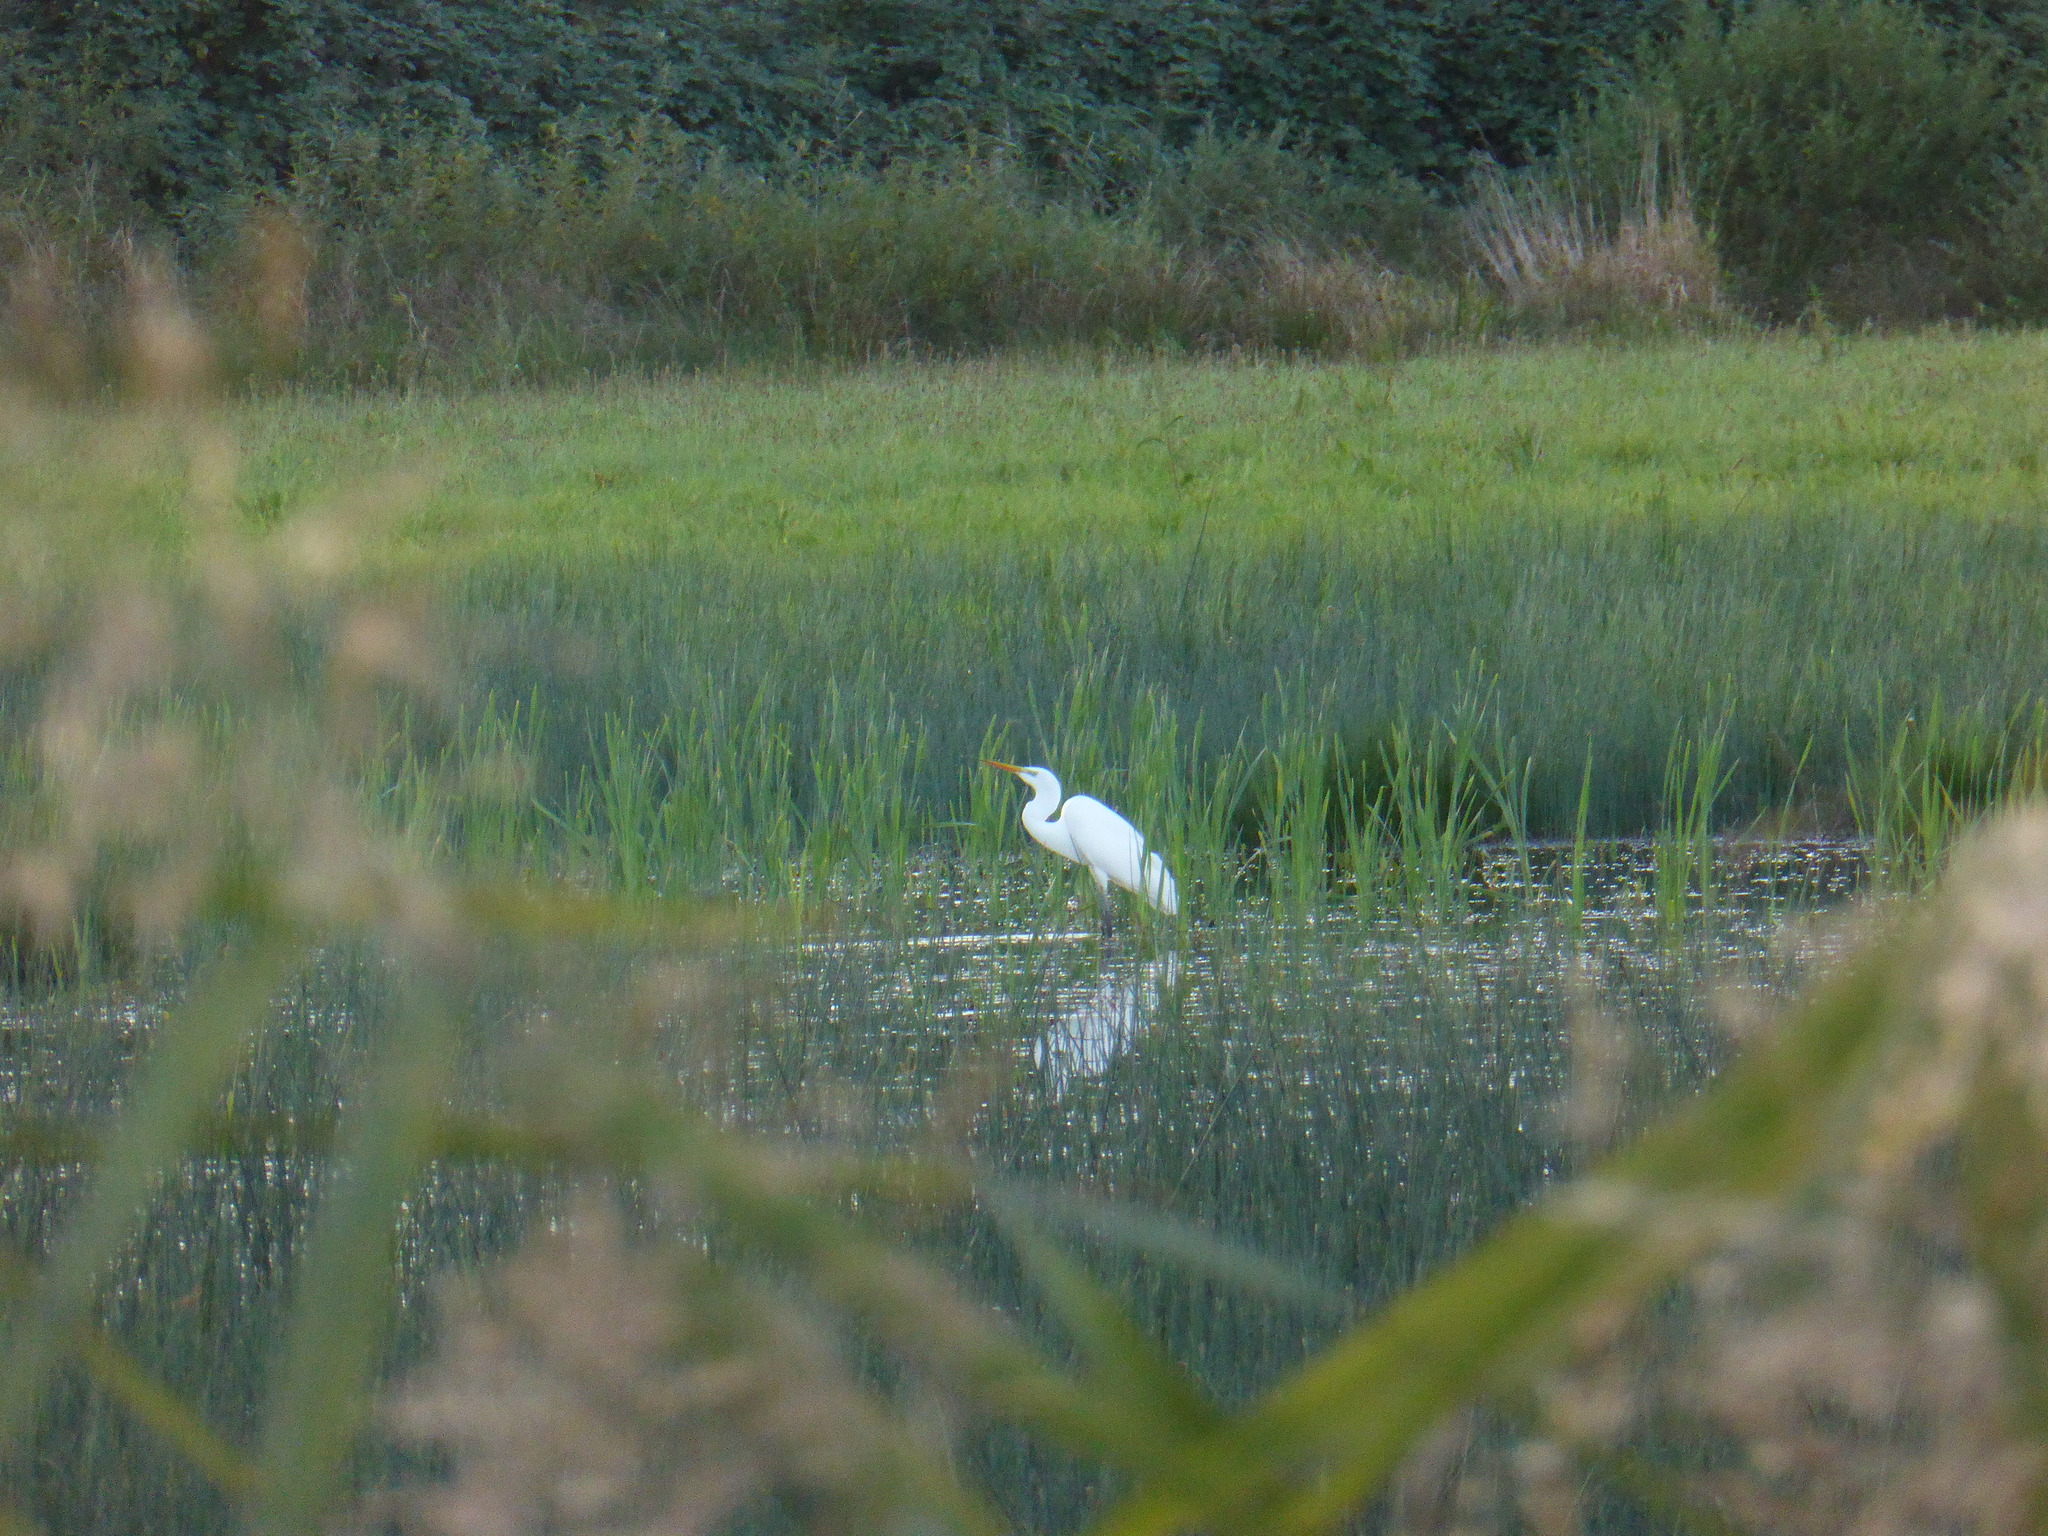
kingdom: Animalia
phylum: Chordata
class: Aves
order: Pelecaniformes
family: Ardeidae
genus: Ardea
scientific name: Ardea alba
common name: Great egret
